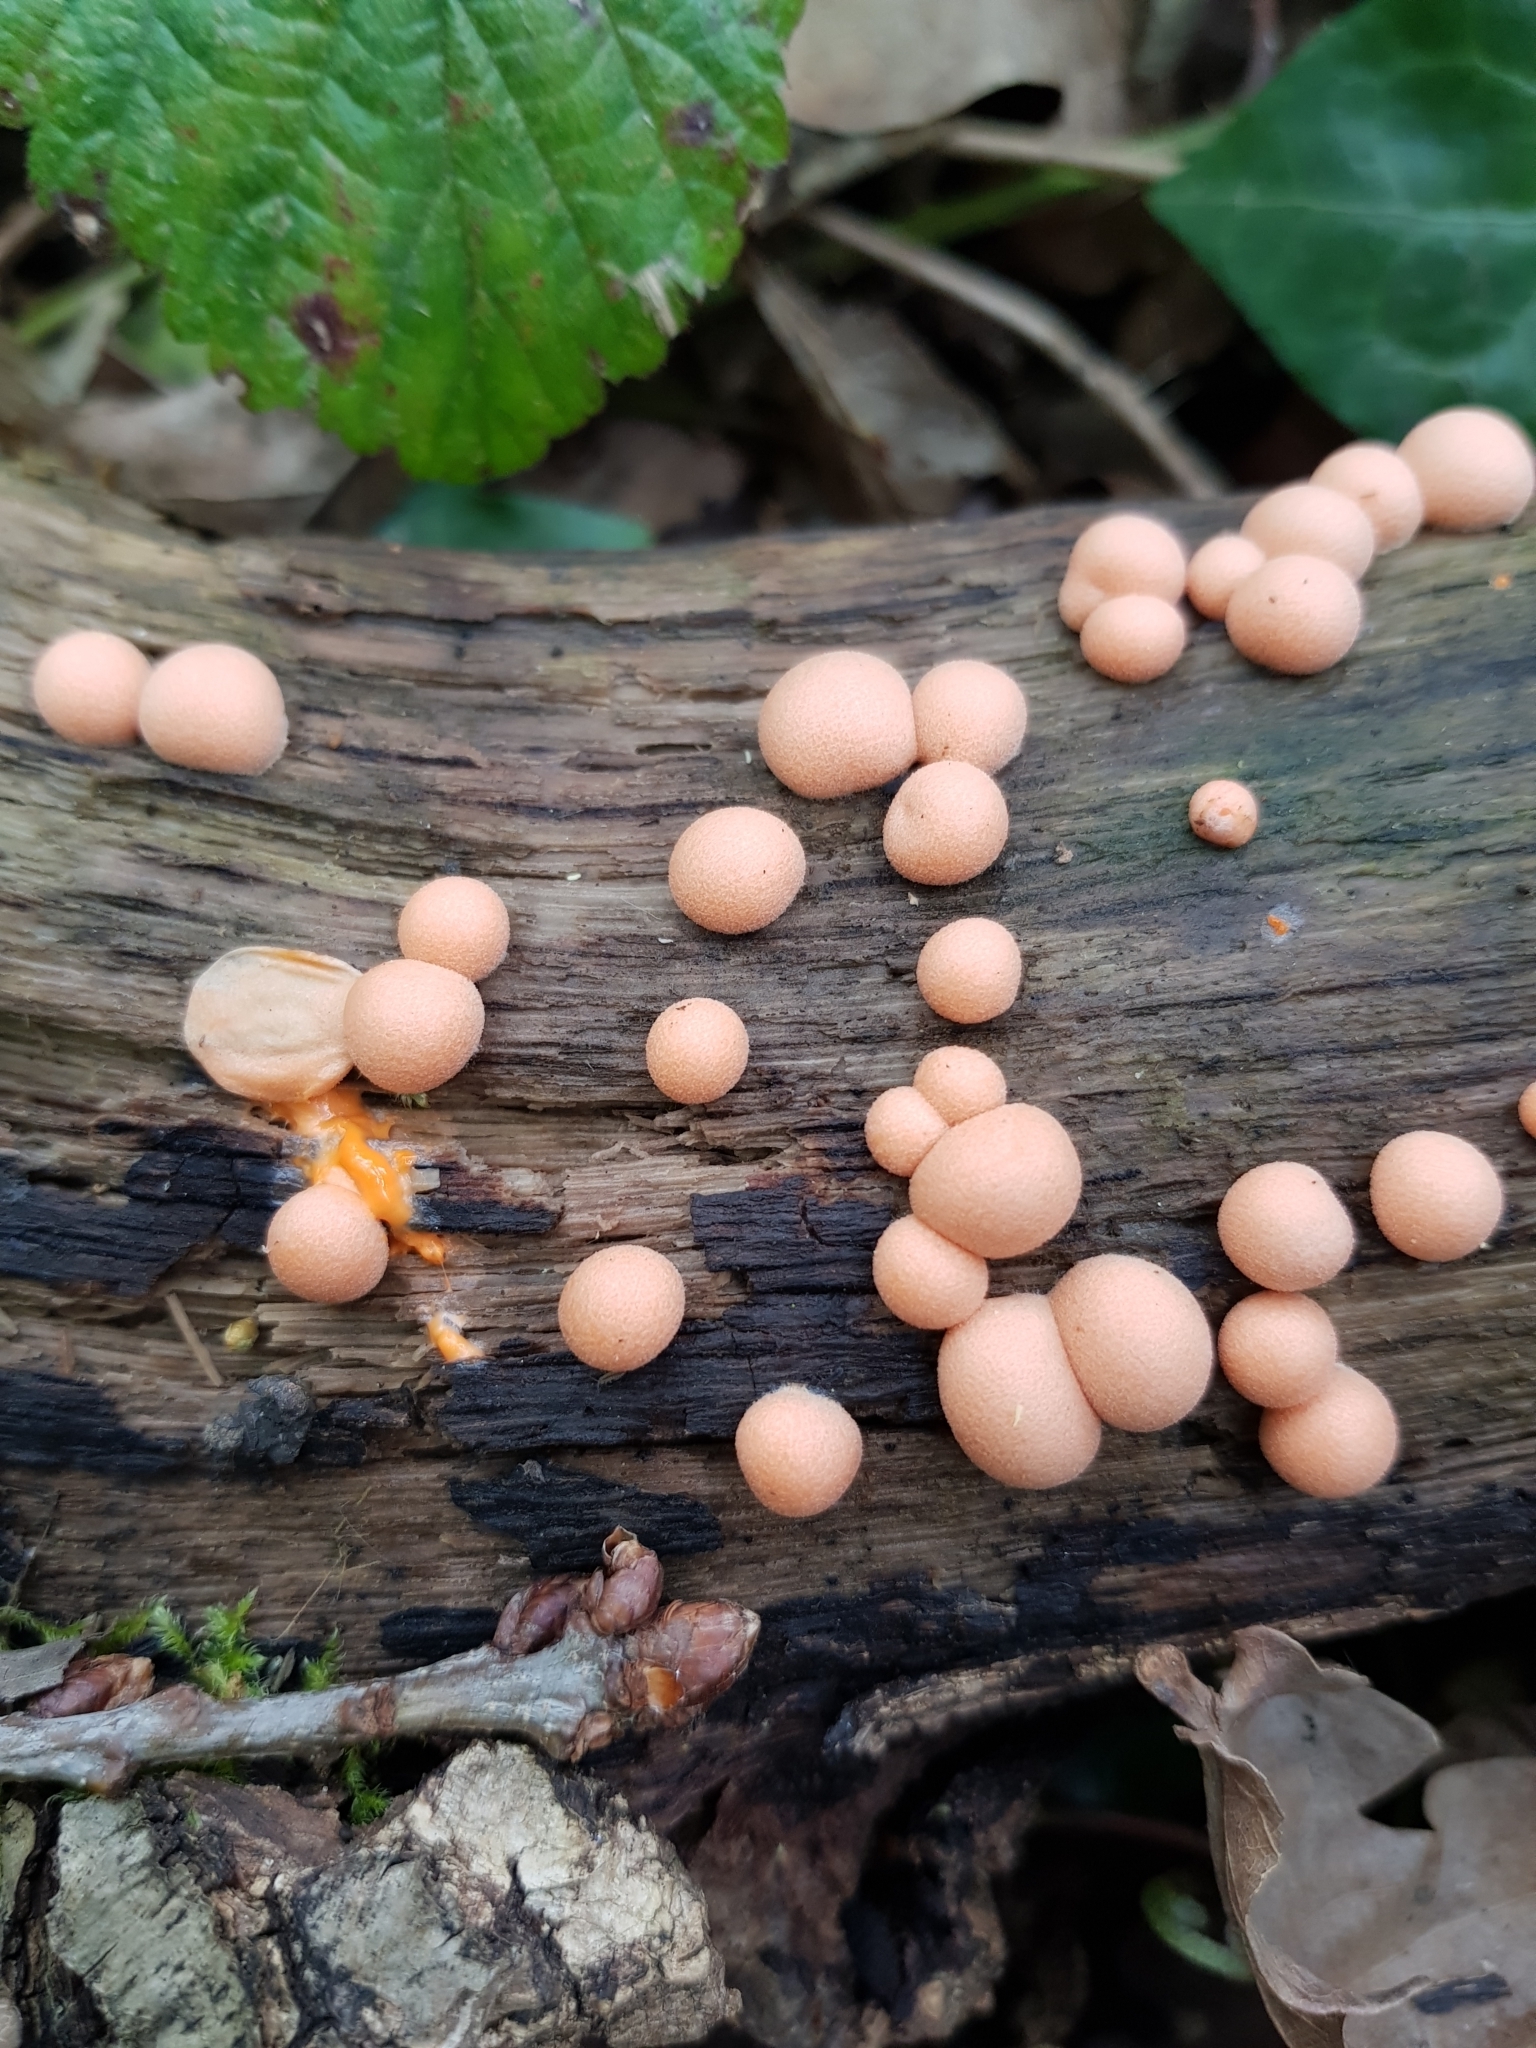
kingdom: Protozoa
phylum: Mycetozoa
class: Myxomycetes
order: Cribrariales
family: Tubiferaceae
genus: Lycogala
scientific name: Lycogala epidendrum
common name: Wolf's milk
